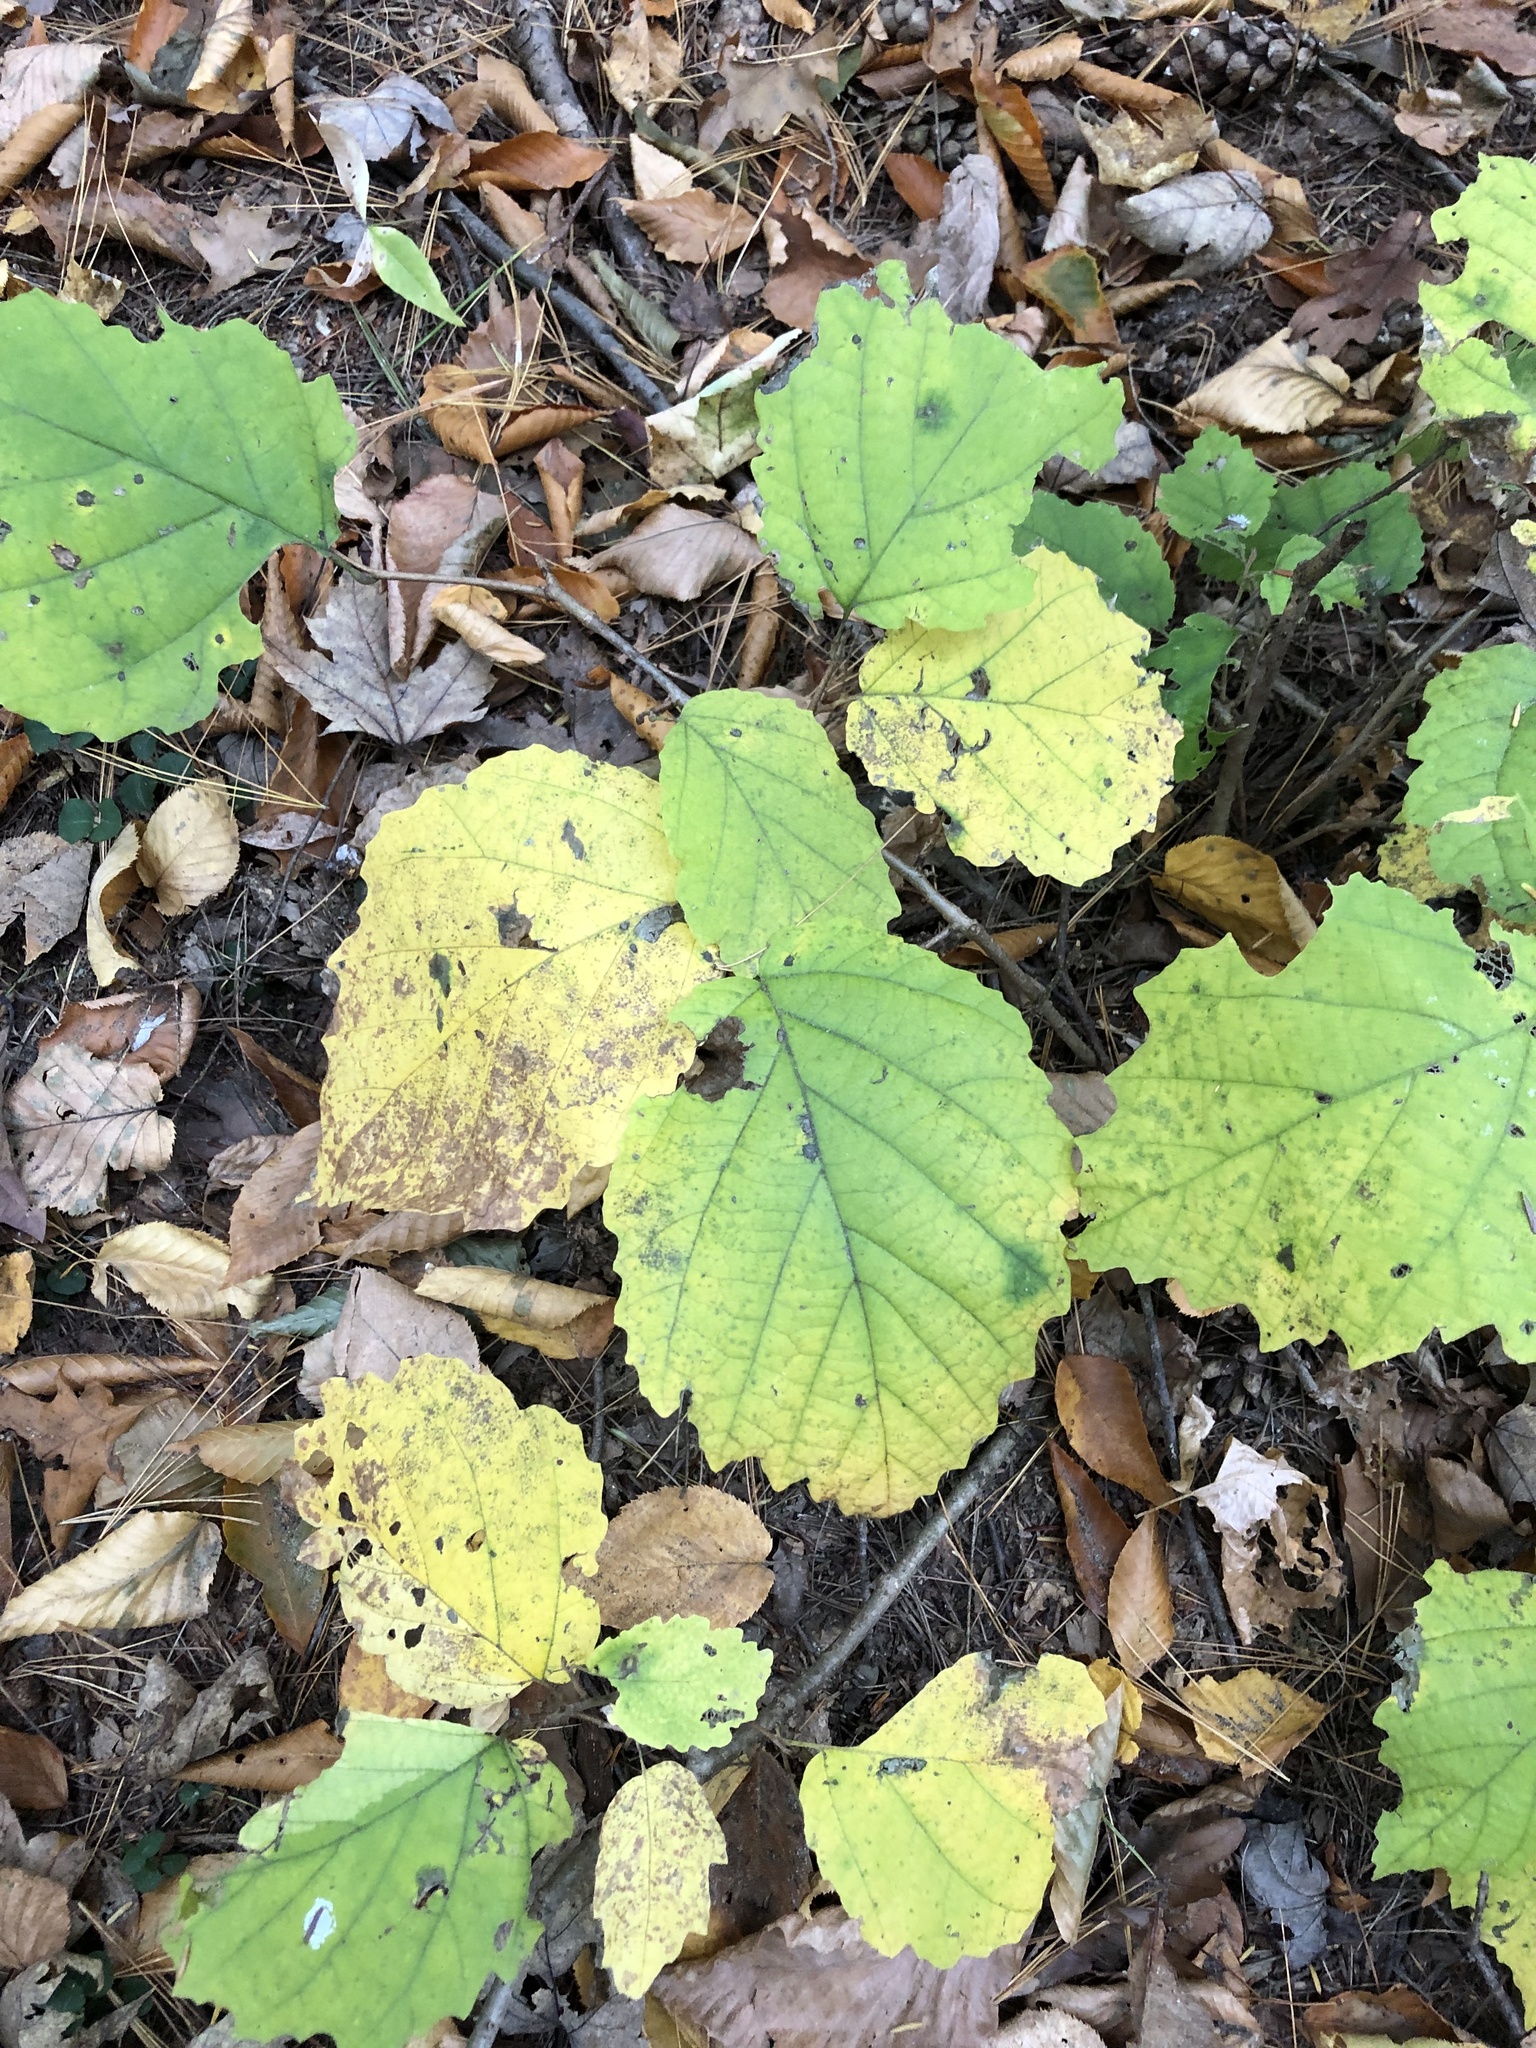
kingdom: Plantae
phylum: Tracheophyta
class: Magnoliopsida
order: Saxifragales
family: Hamamelidaceae
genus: Hamamelis
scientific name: Hamamelis virginiana
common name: Witch-hazel
